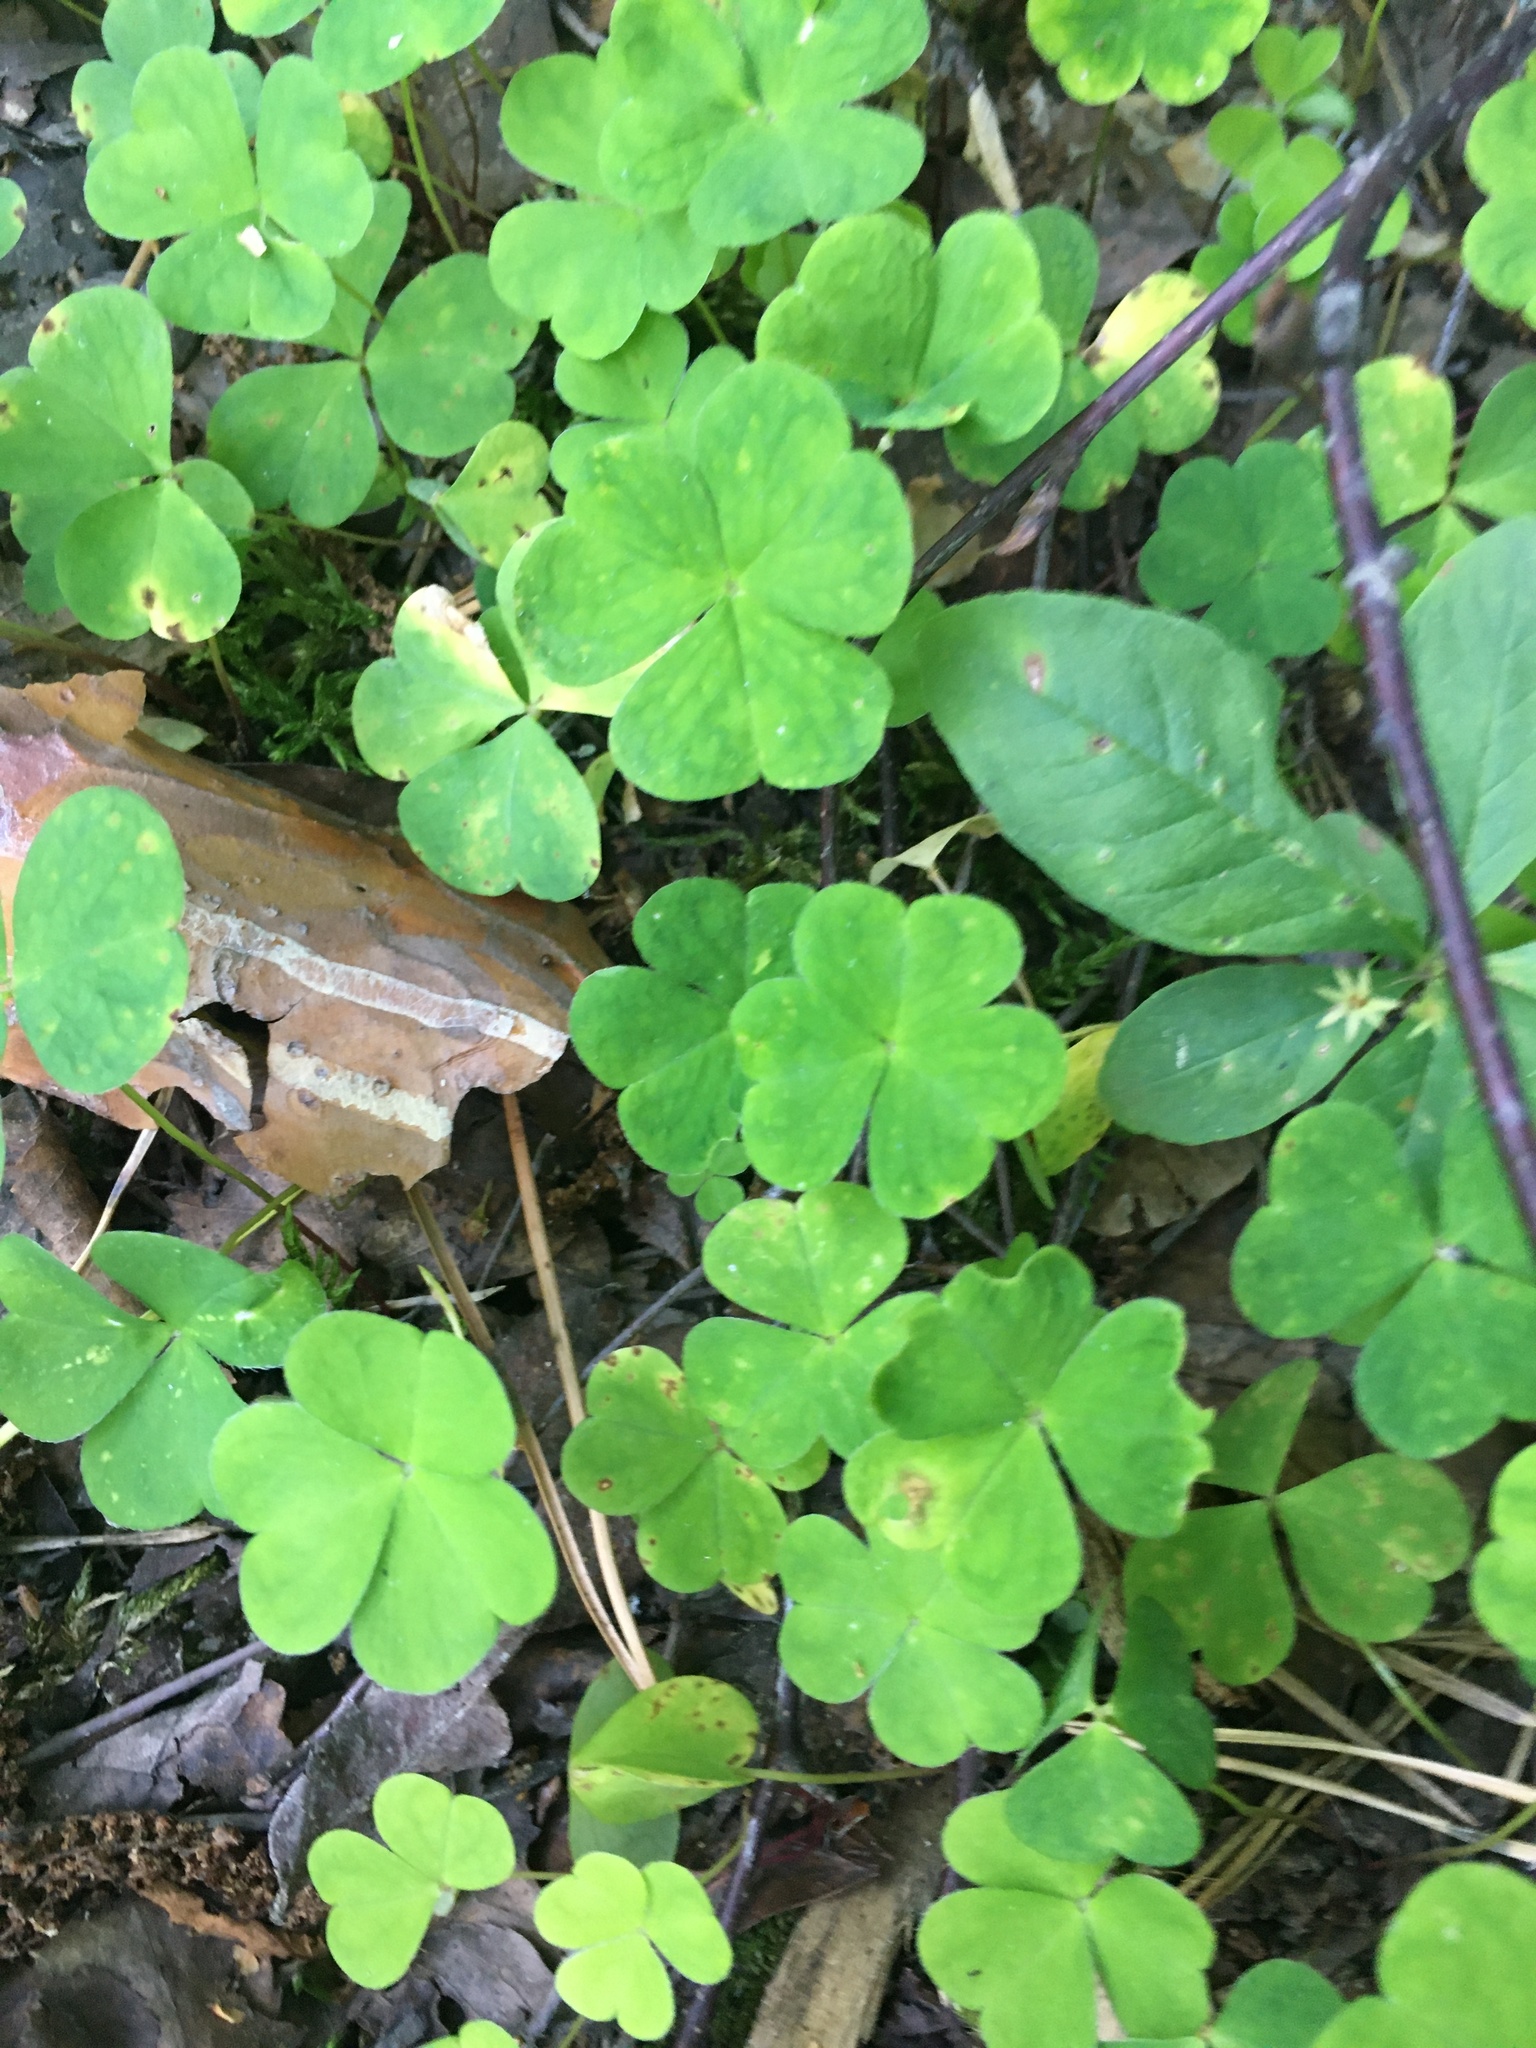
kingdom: Plantae
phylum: Tracheophyta
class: Magnoliopsida
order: Oxalidales
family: Oxalidaceae
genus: Oxalis
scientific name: Oxalis acetosella
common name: Wood-sorrel
